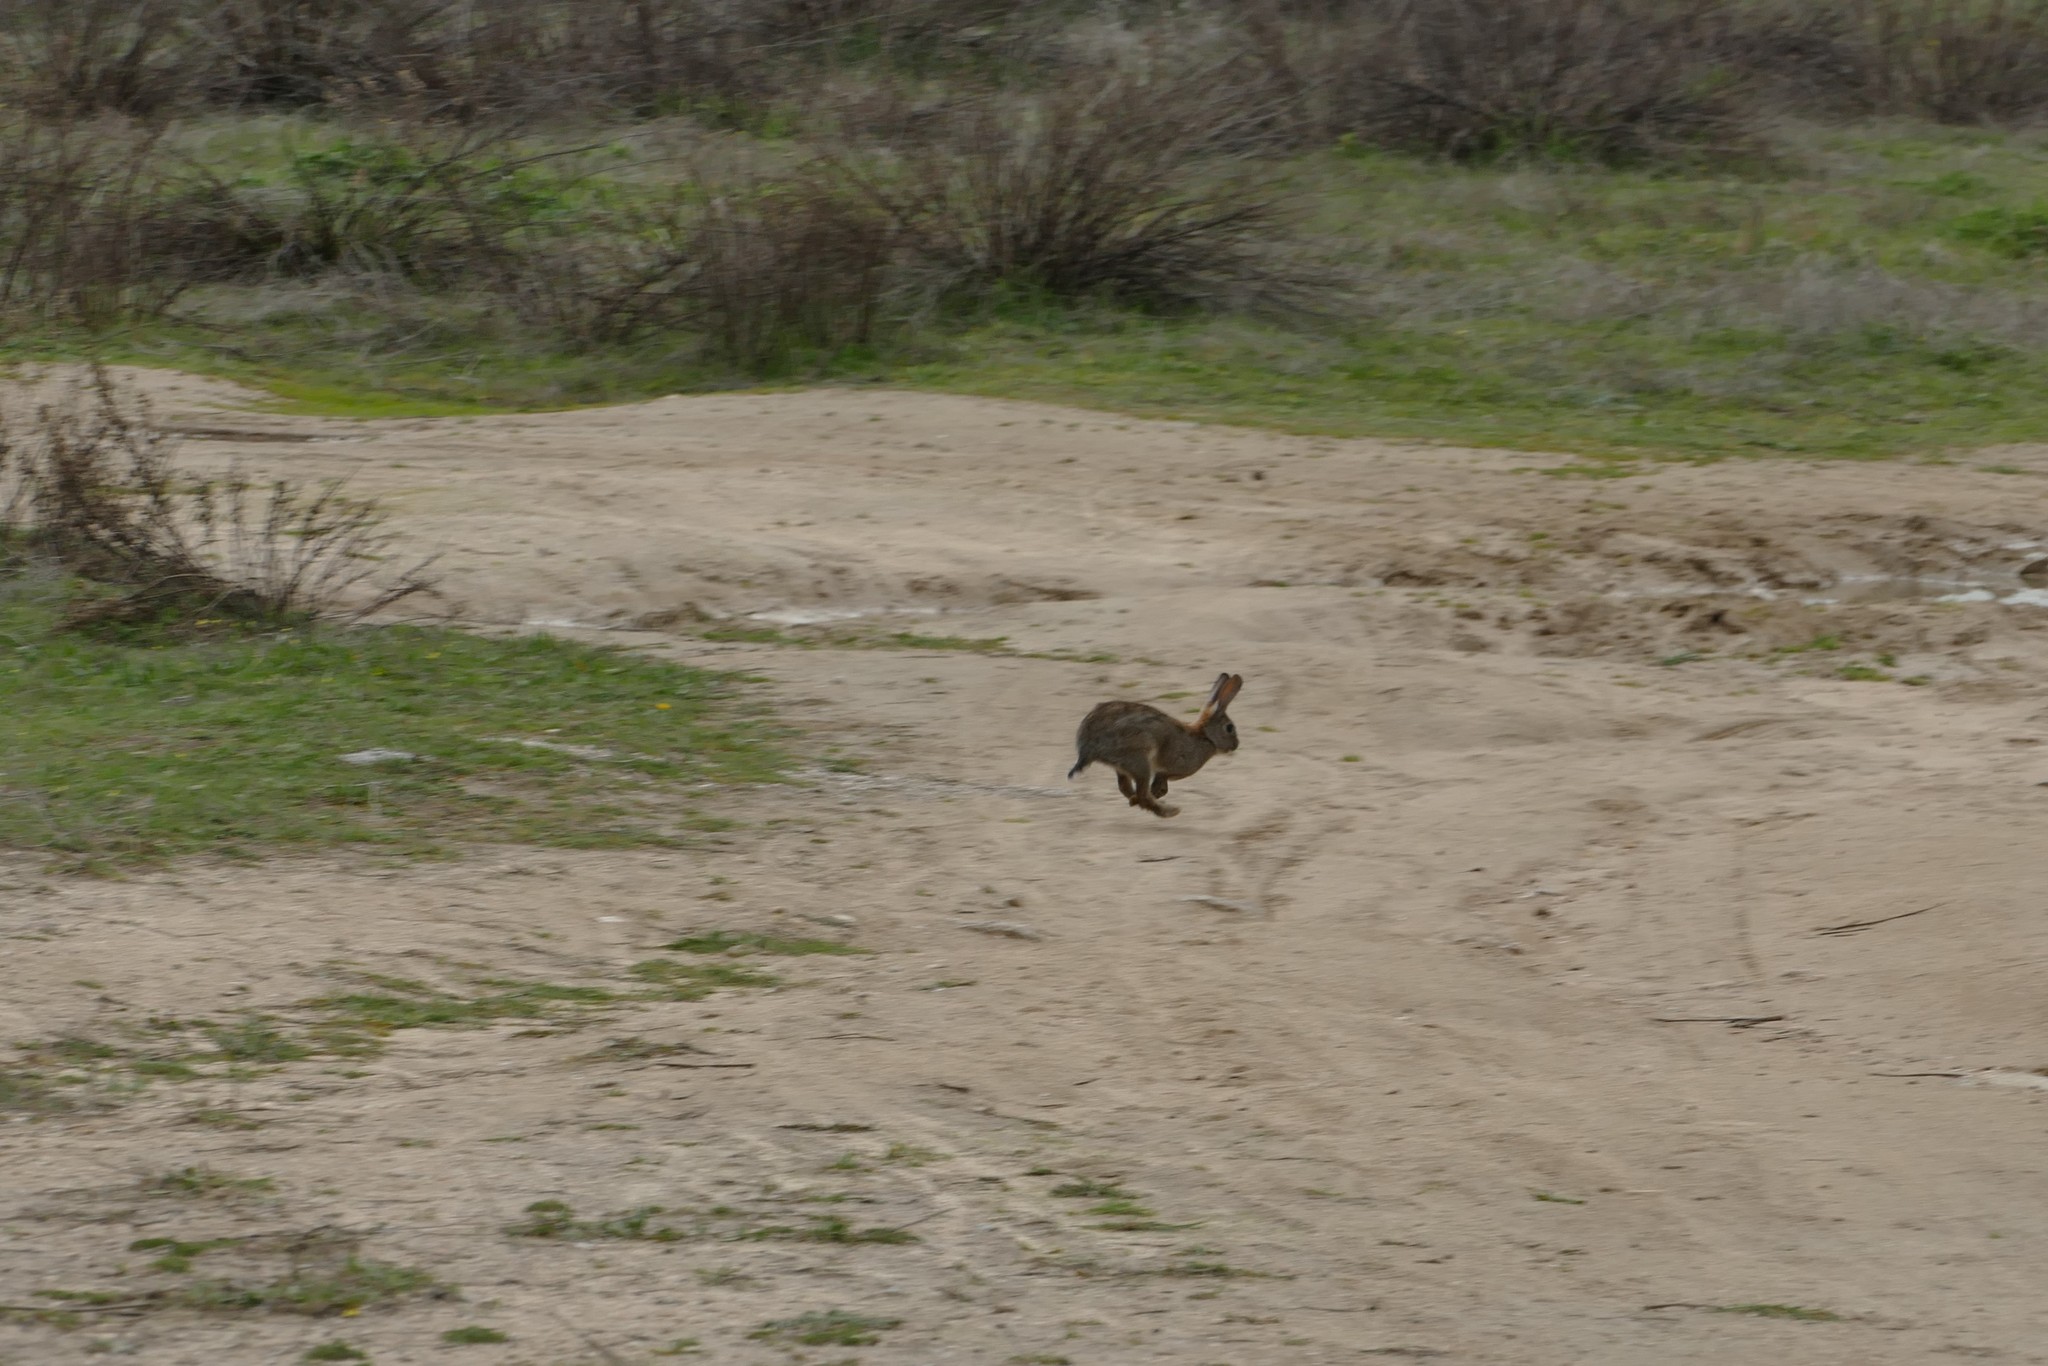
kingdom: Animalia
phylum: Chordata
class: Mammalia
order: Lagomorpha
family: Leporidae
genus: Oryctolagus
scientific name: Oryctolagus cuniculus
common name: European rabbit
